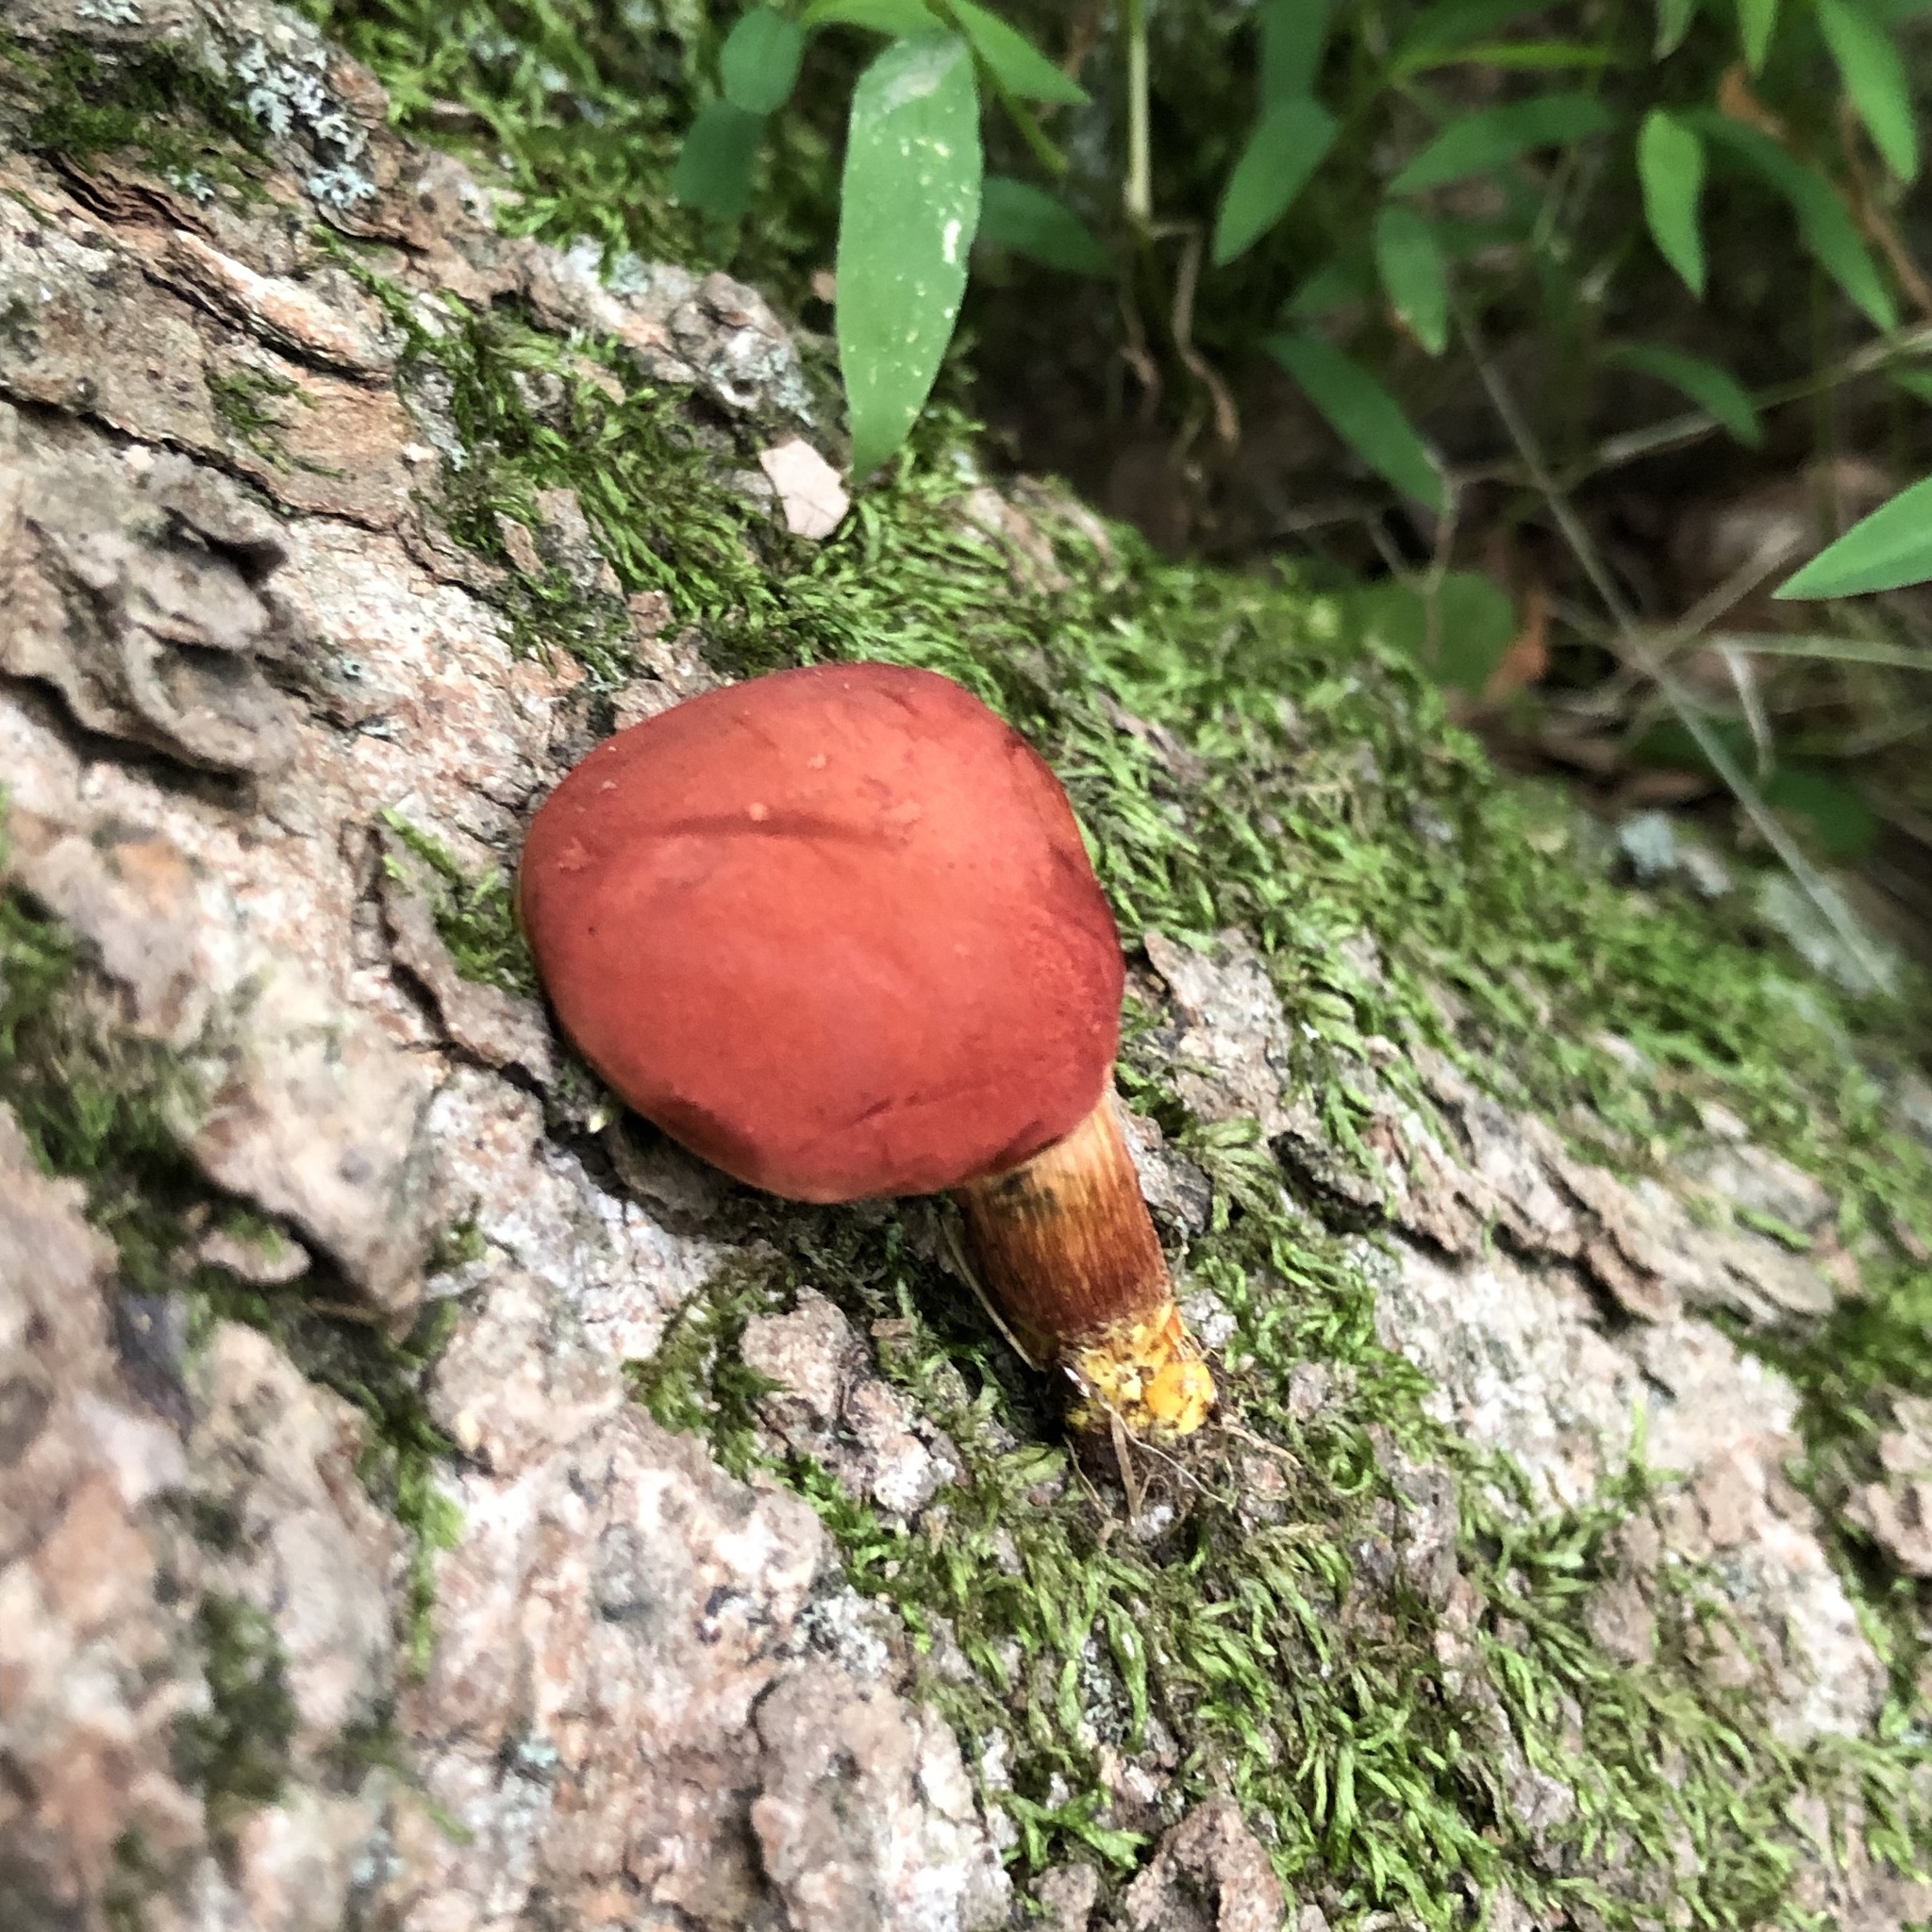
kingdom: Fungi
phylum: Basidiomycota
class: Agaricomycetes
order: Boletales
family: Boletaceae
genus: Hortiboletus
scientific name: Hortiboletus rubellus
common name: Ruby bolete
